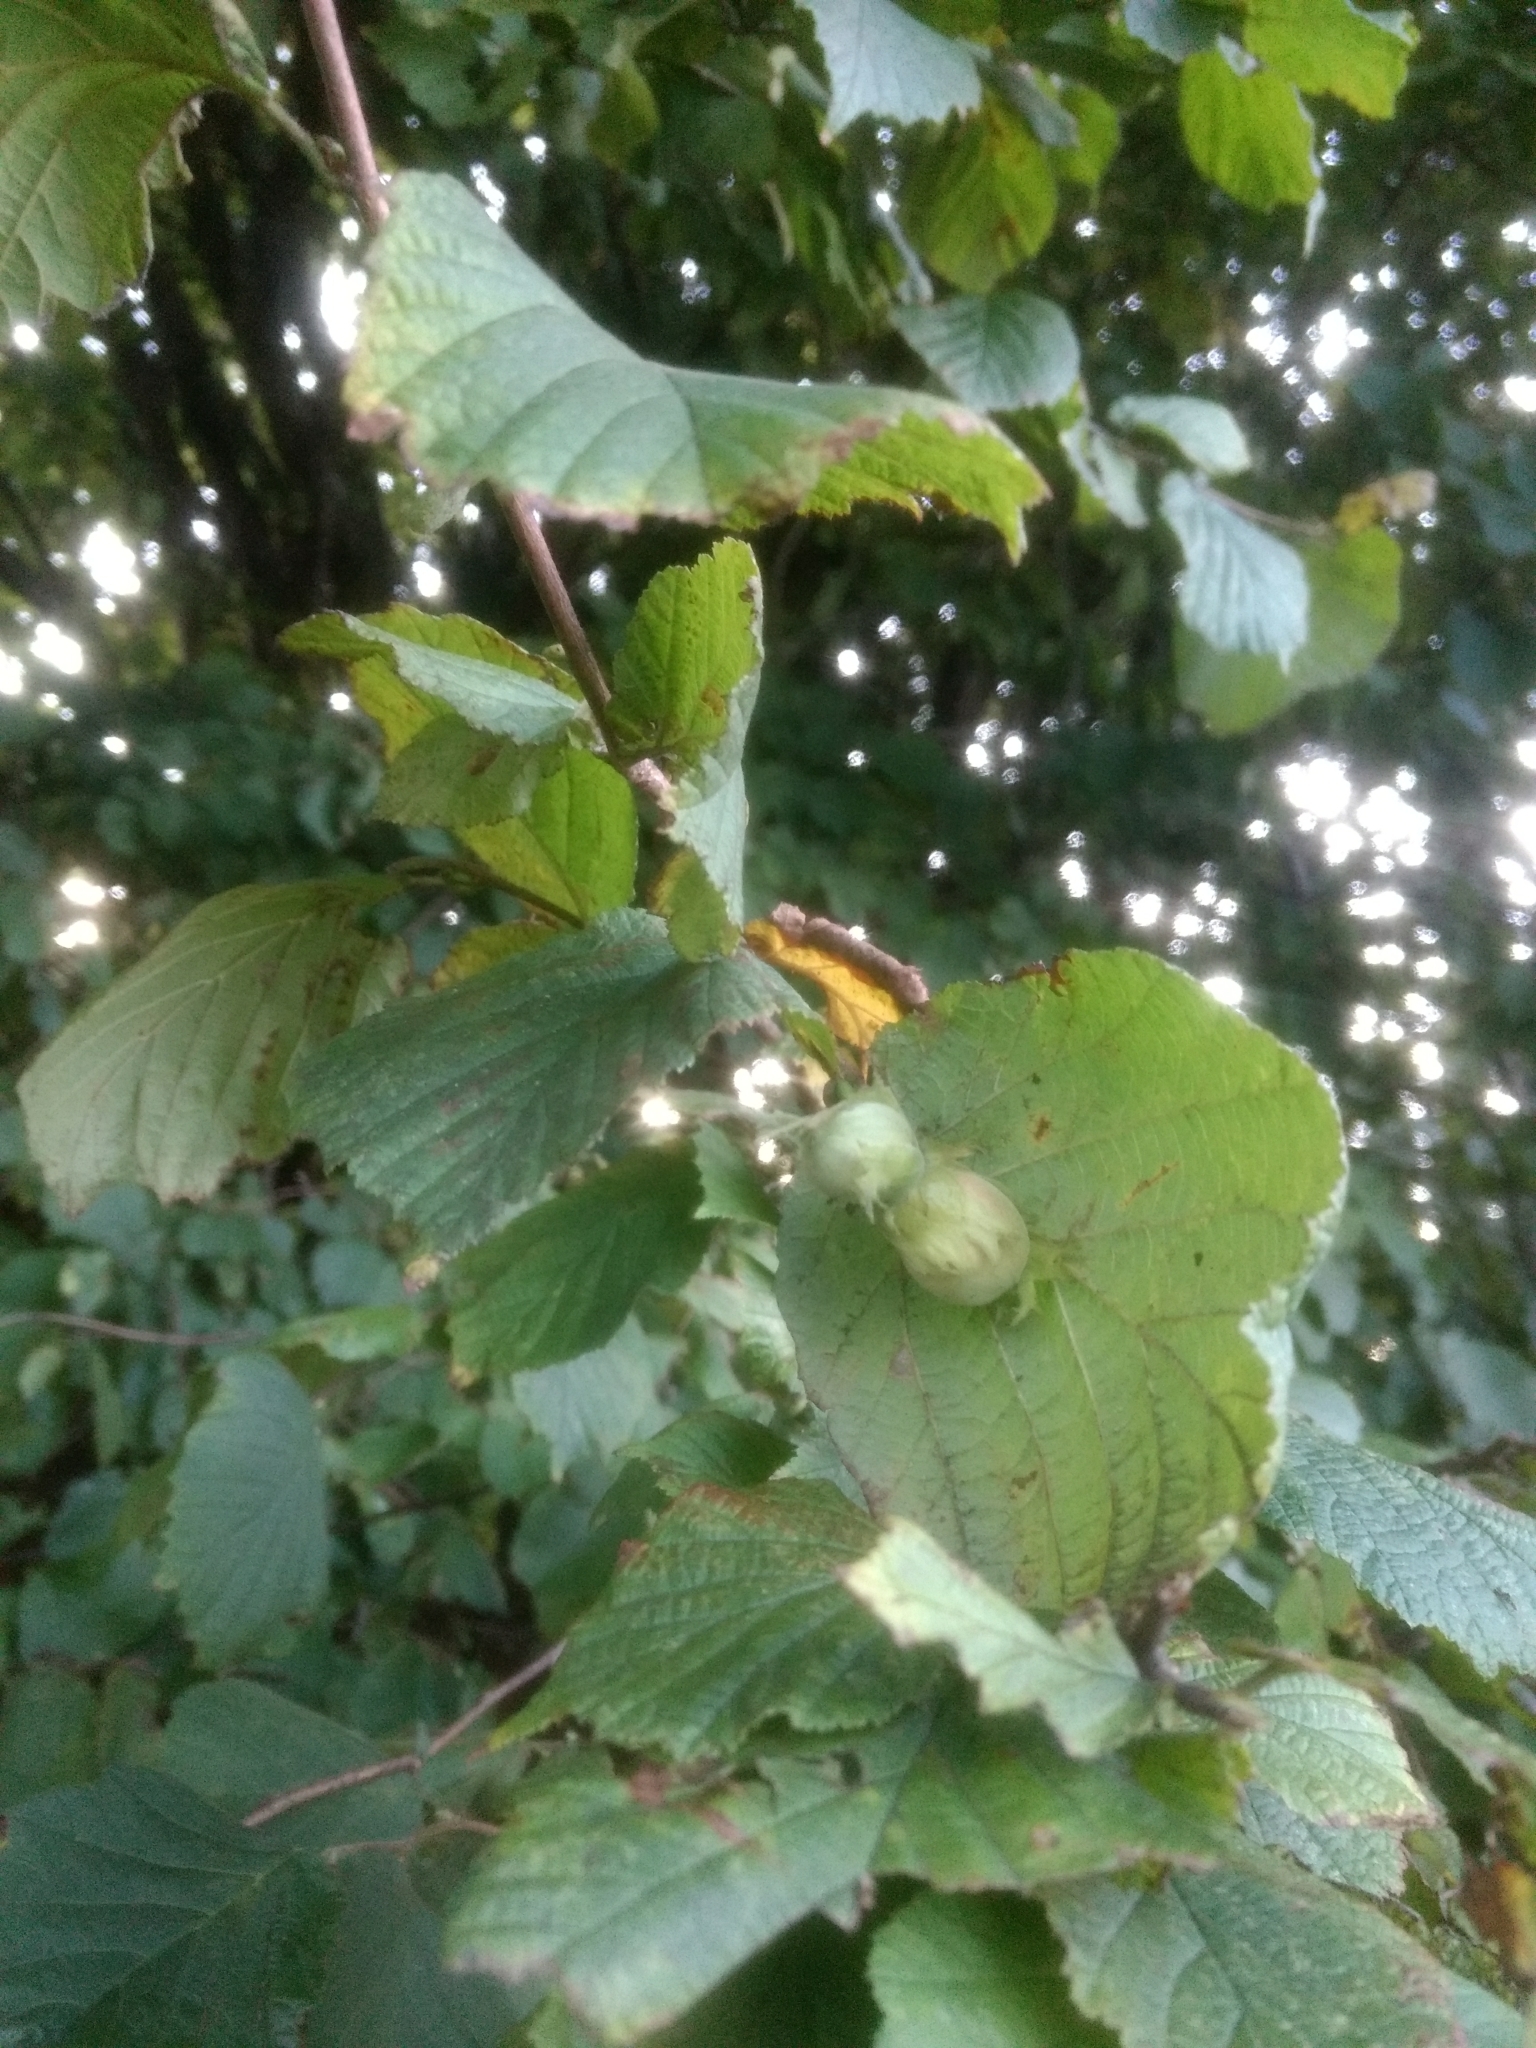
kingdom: Plantae
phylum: Tracheophyta
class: Magnoliopsida
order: Fagales
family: Betulaceae
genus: Corylus
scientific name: Corylus avellana
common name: European hazel
